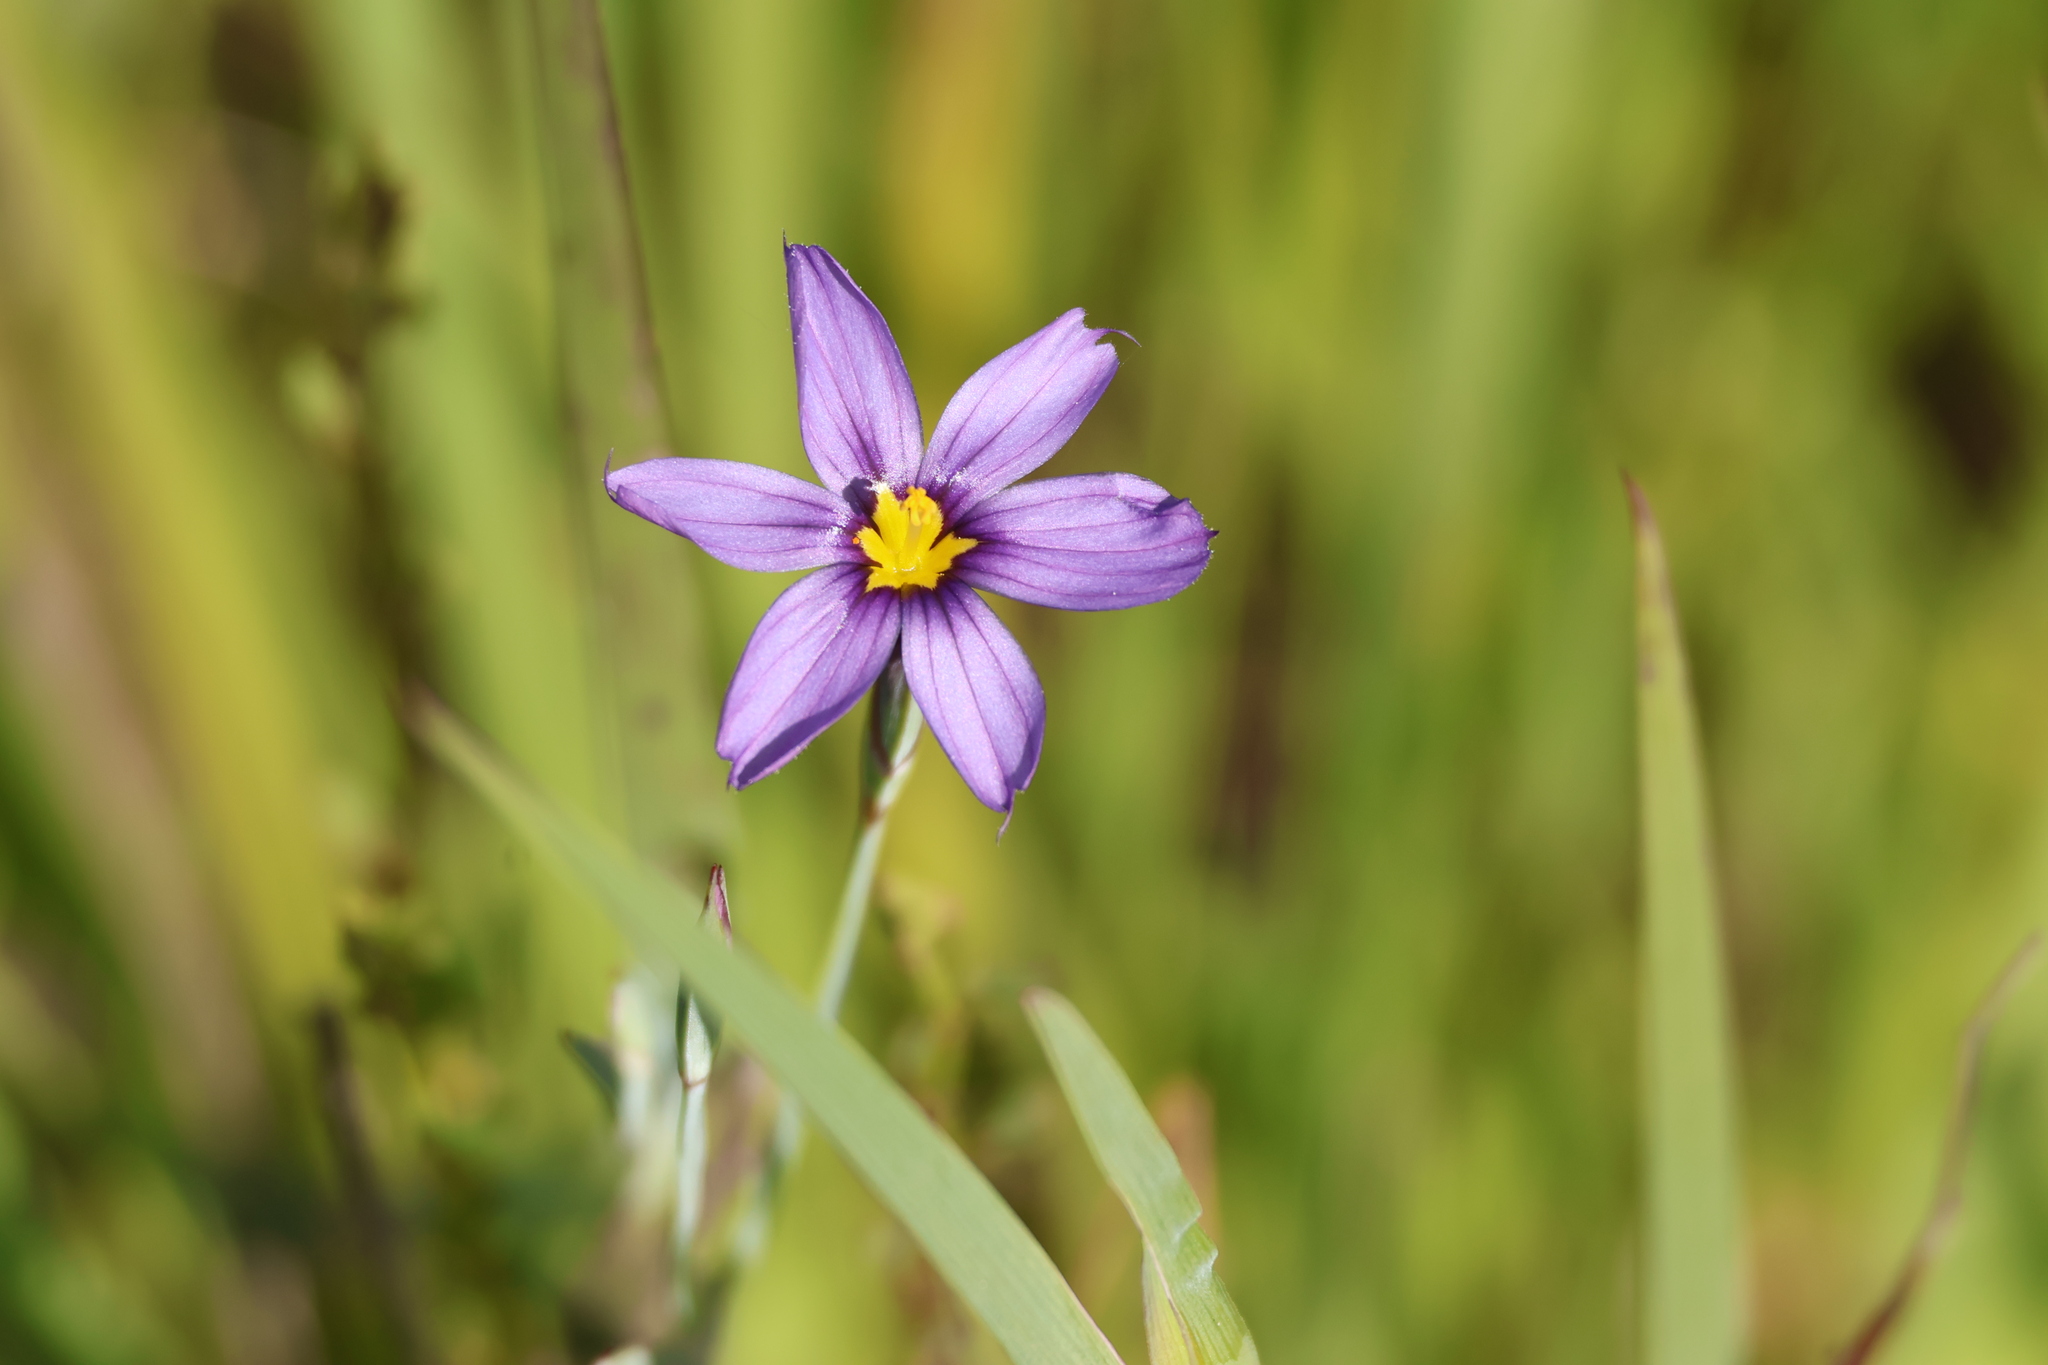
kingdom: Plantae
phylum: Tracheophyta
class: Liliopsida
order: Asparagales
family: Iridaceae
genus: Sisyrinchium
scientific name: Sisyrinchium bellum
